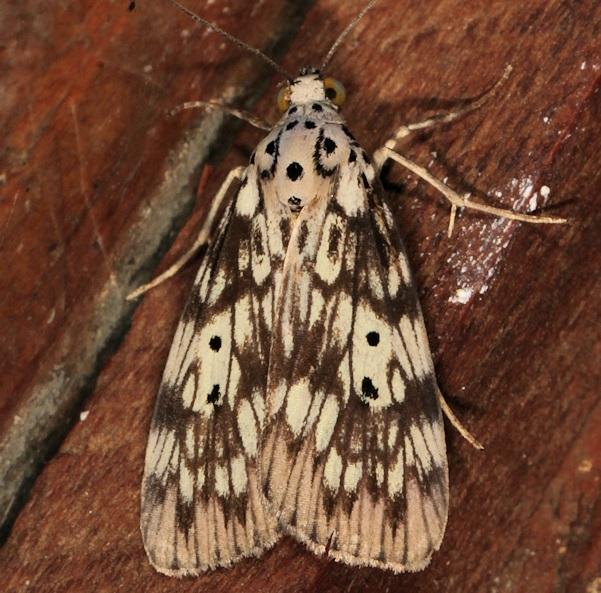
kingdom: Animalia
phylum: Arthropoda
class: Insecta
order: Lepidoptera
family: Erebidae
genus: Digama
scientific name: Digama meridionalis
